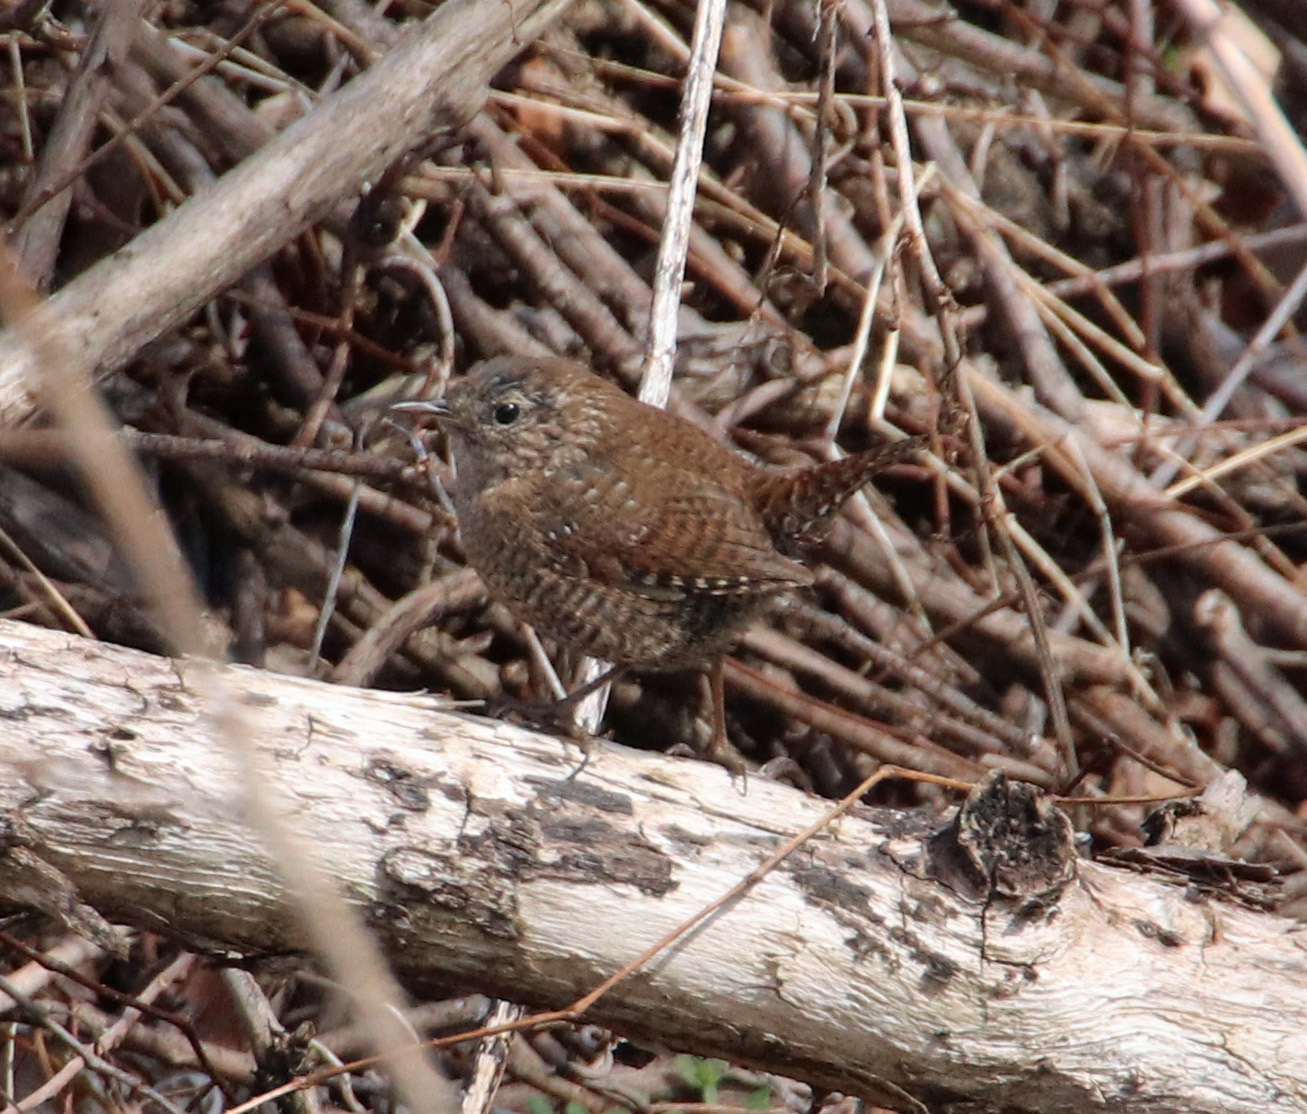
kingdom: Animalia
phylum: Chordata
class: Aves
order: Passeriformes
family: Troglodytidae
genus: Troglodytes
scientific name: Troglodytes hiemalis
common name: Winter wren
